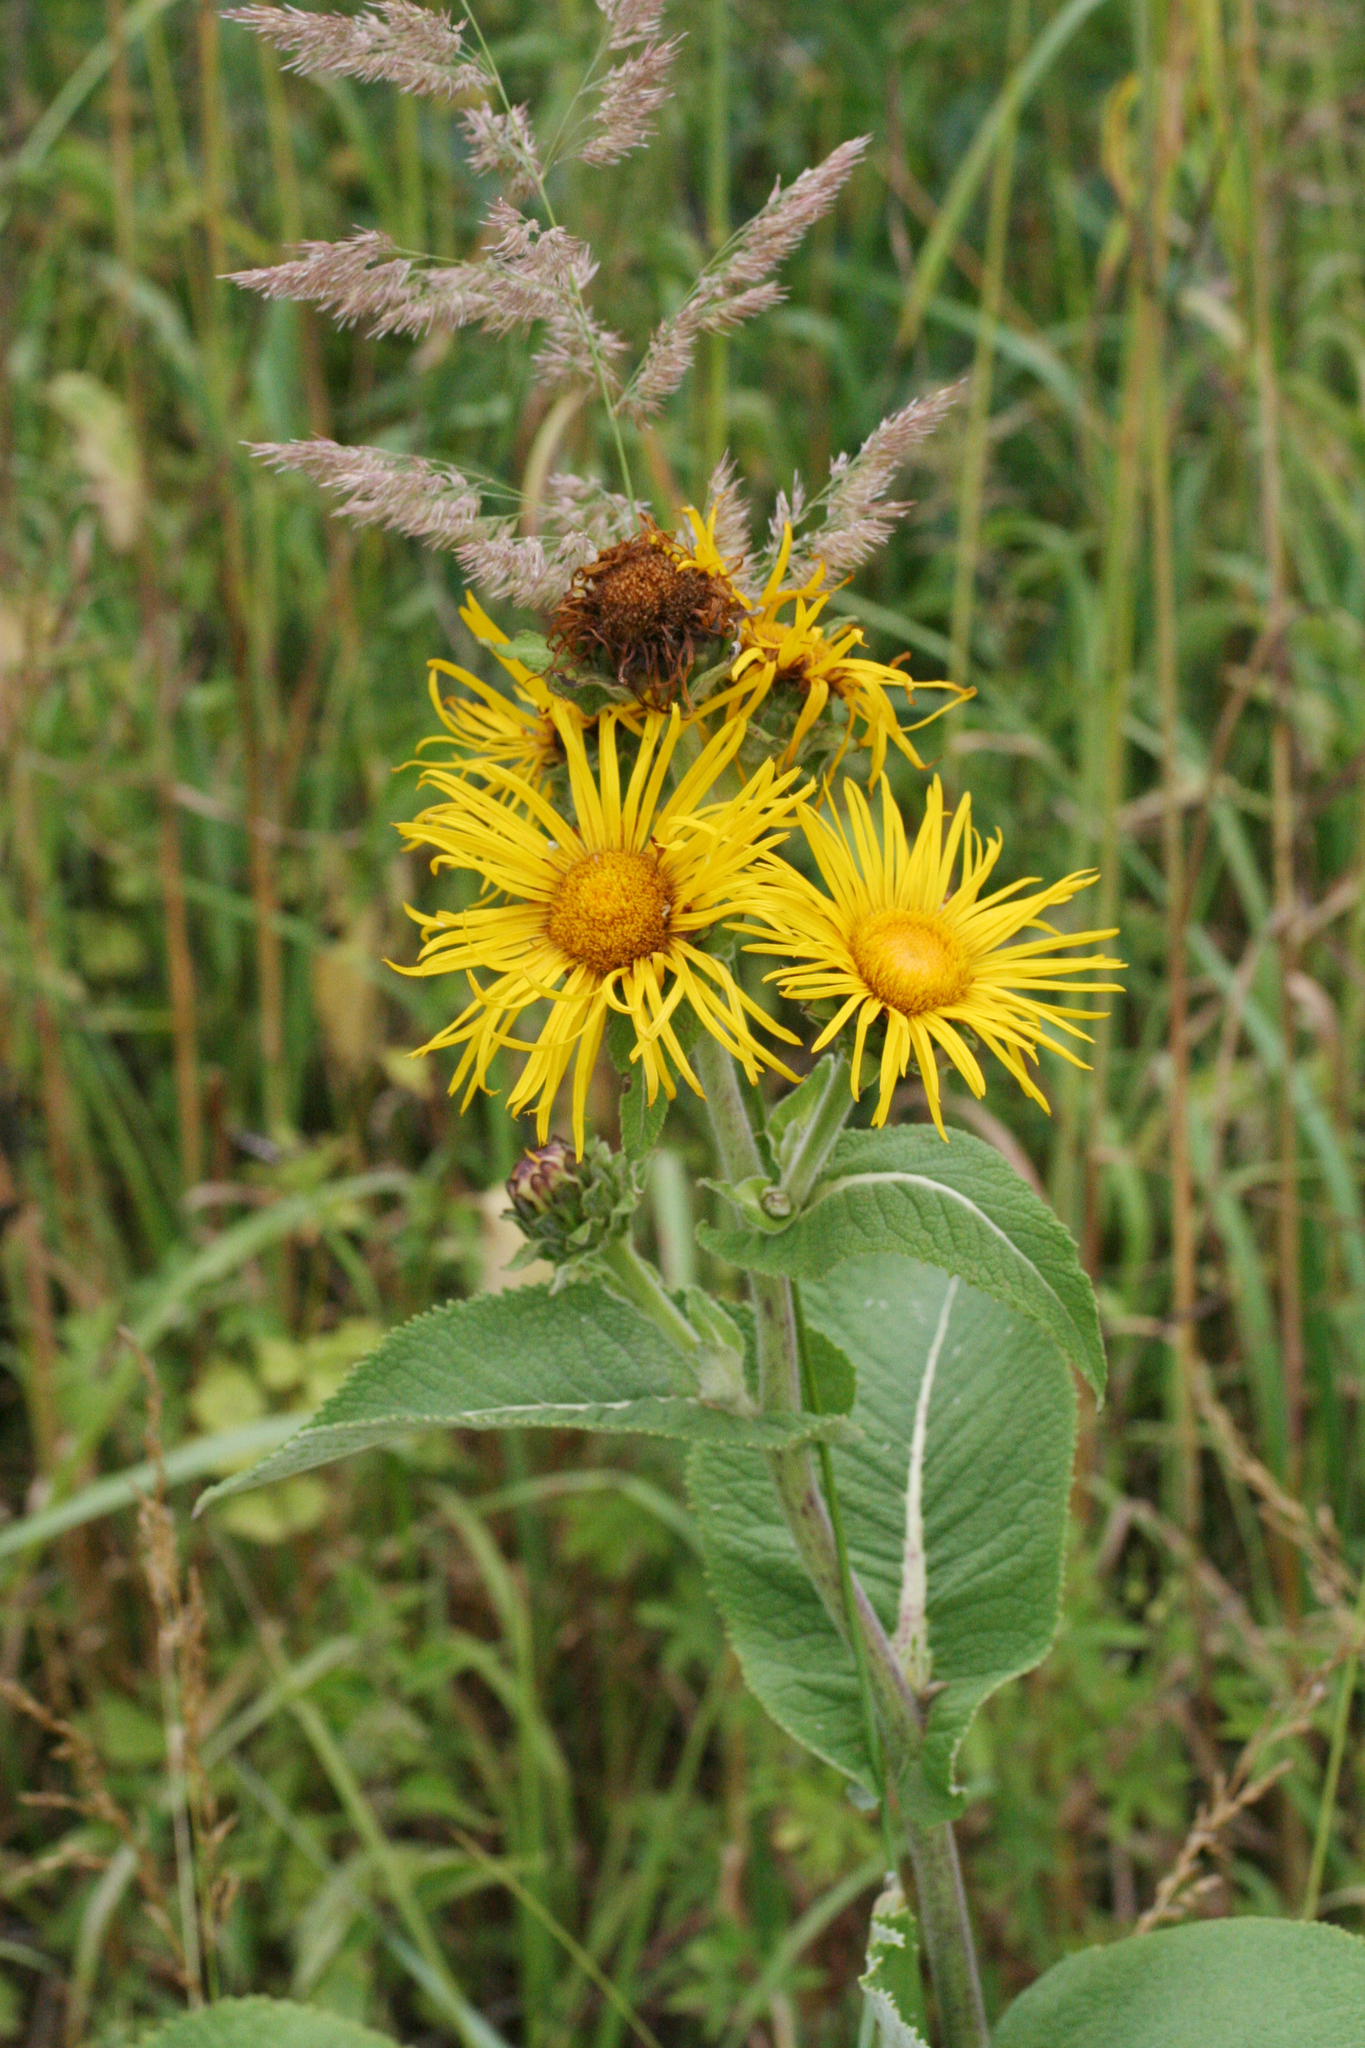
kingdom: Plantae
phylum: Tracheophyta
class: Magnoliopsida
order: Asterales
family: Asteraceae
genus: Inula
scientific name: Inula helenium
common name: Elecampane
